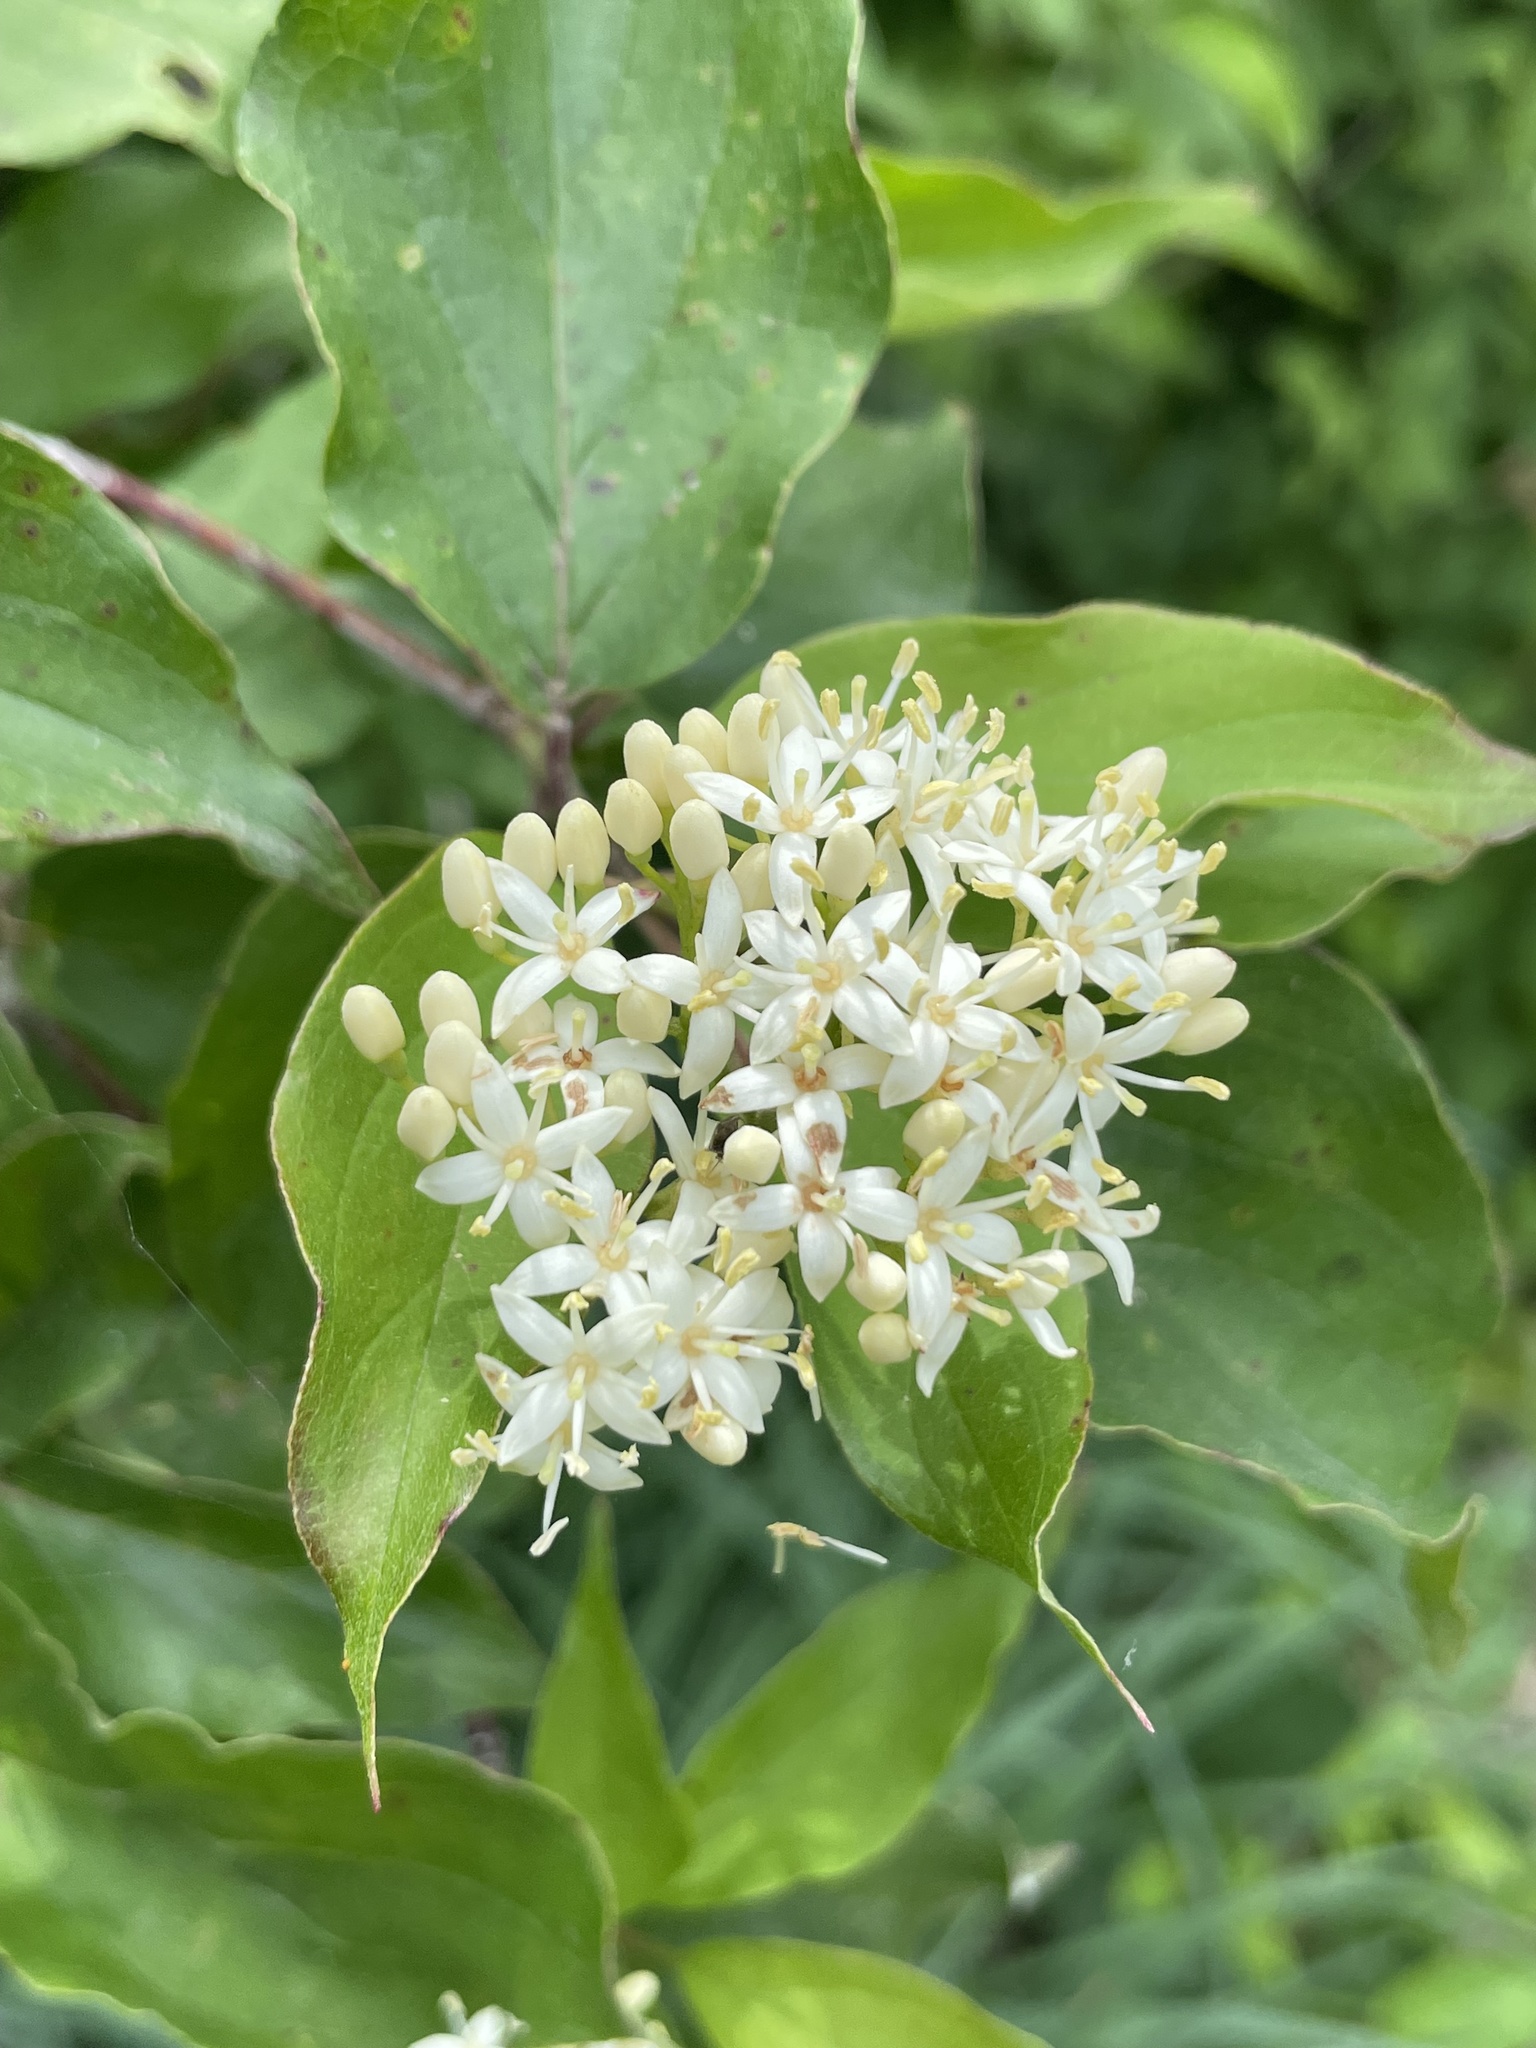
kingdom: Plantae
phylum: Tracheophyta
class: Magnoliopsida
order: Cornales
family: Cornaceae
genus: Cornus
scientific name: Cornus drummondii
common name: Rough-leaf dogwood
